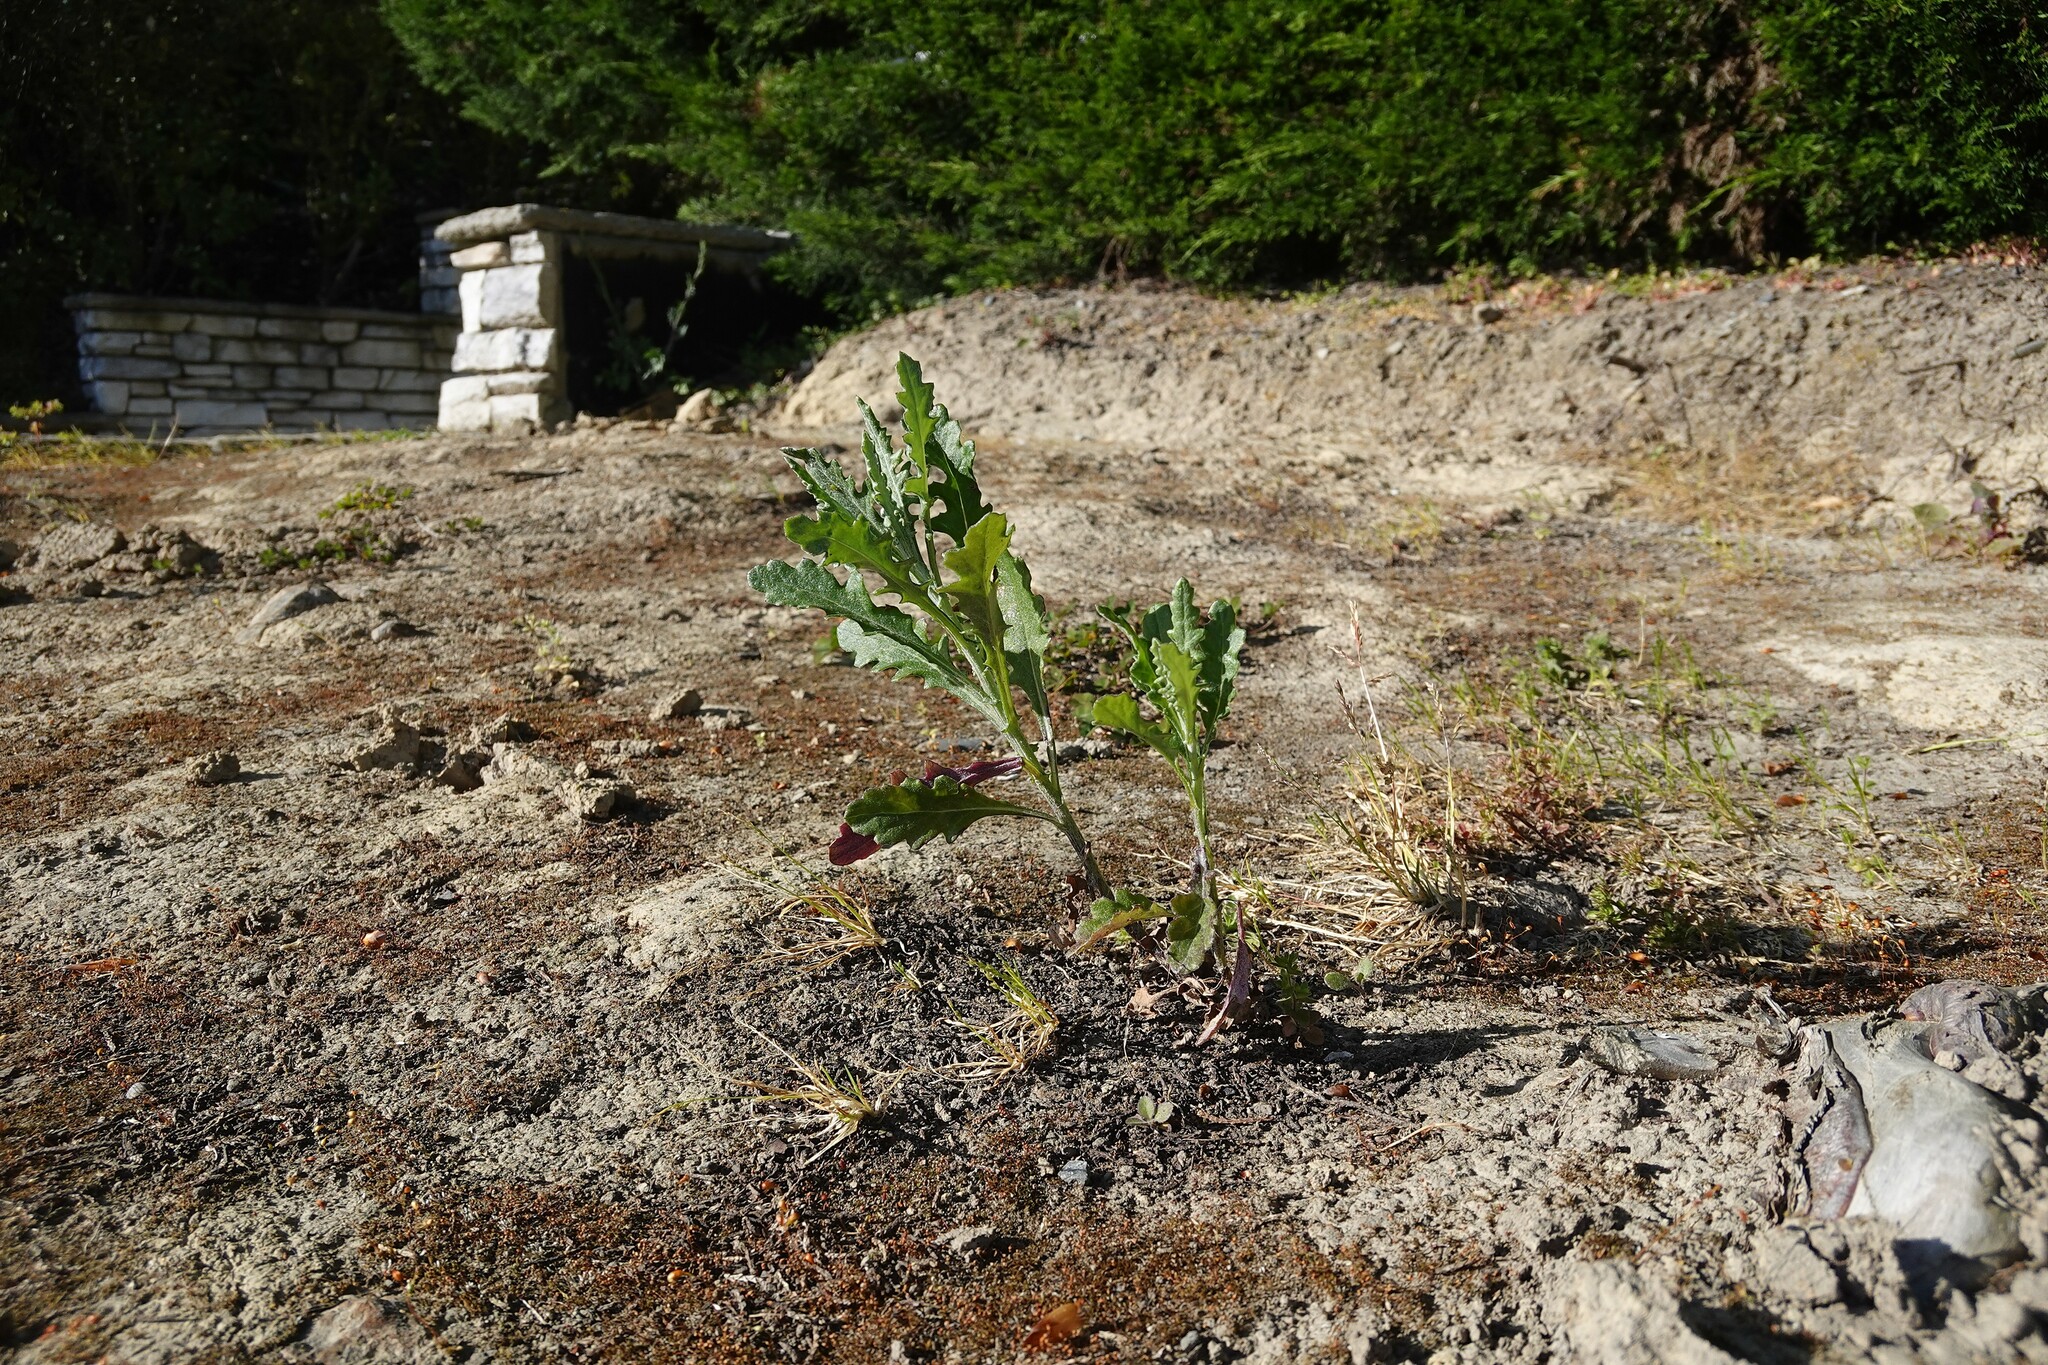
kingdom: Plantae
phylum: Tracheophyta
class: Magnoliopsida
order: Asterales
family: Asteraceae
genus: Senecio
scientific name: Senecio glomeratus
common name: Cutleaf burnweed
